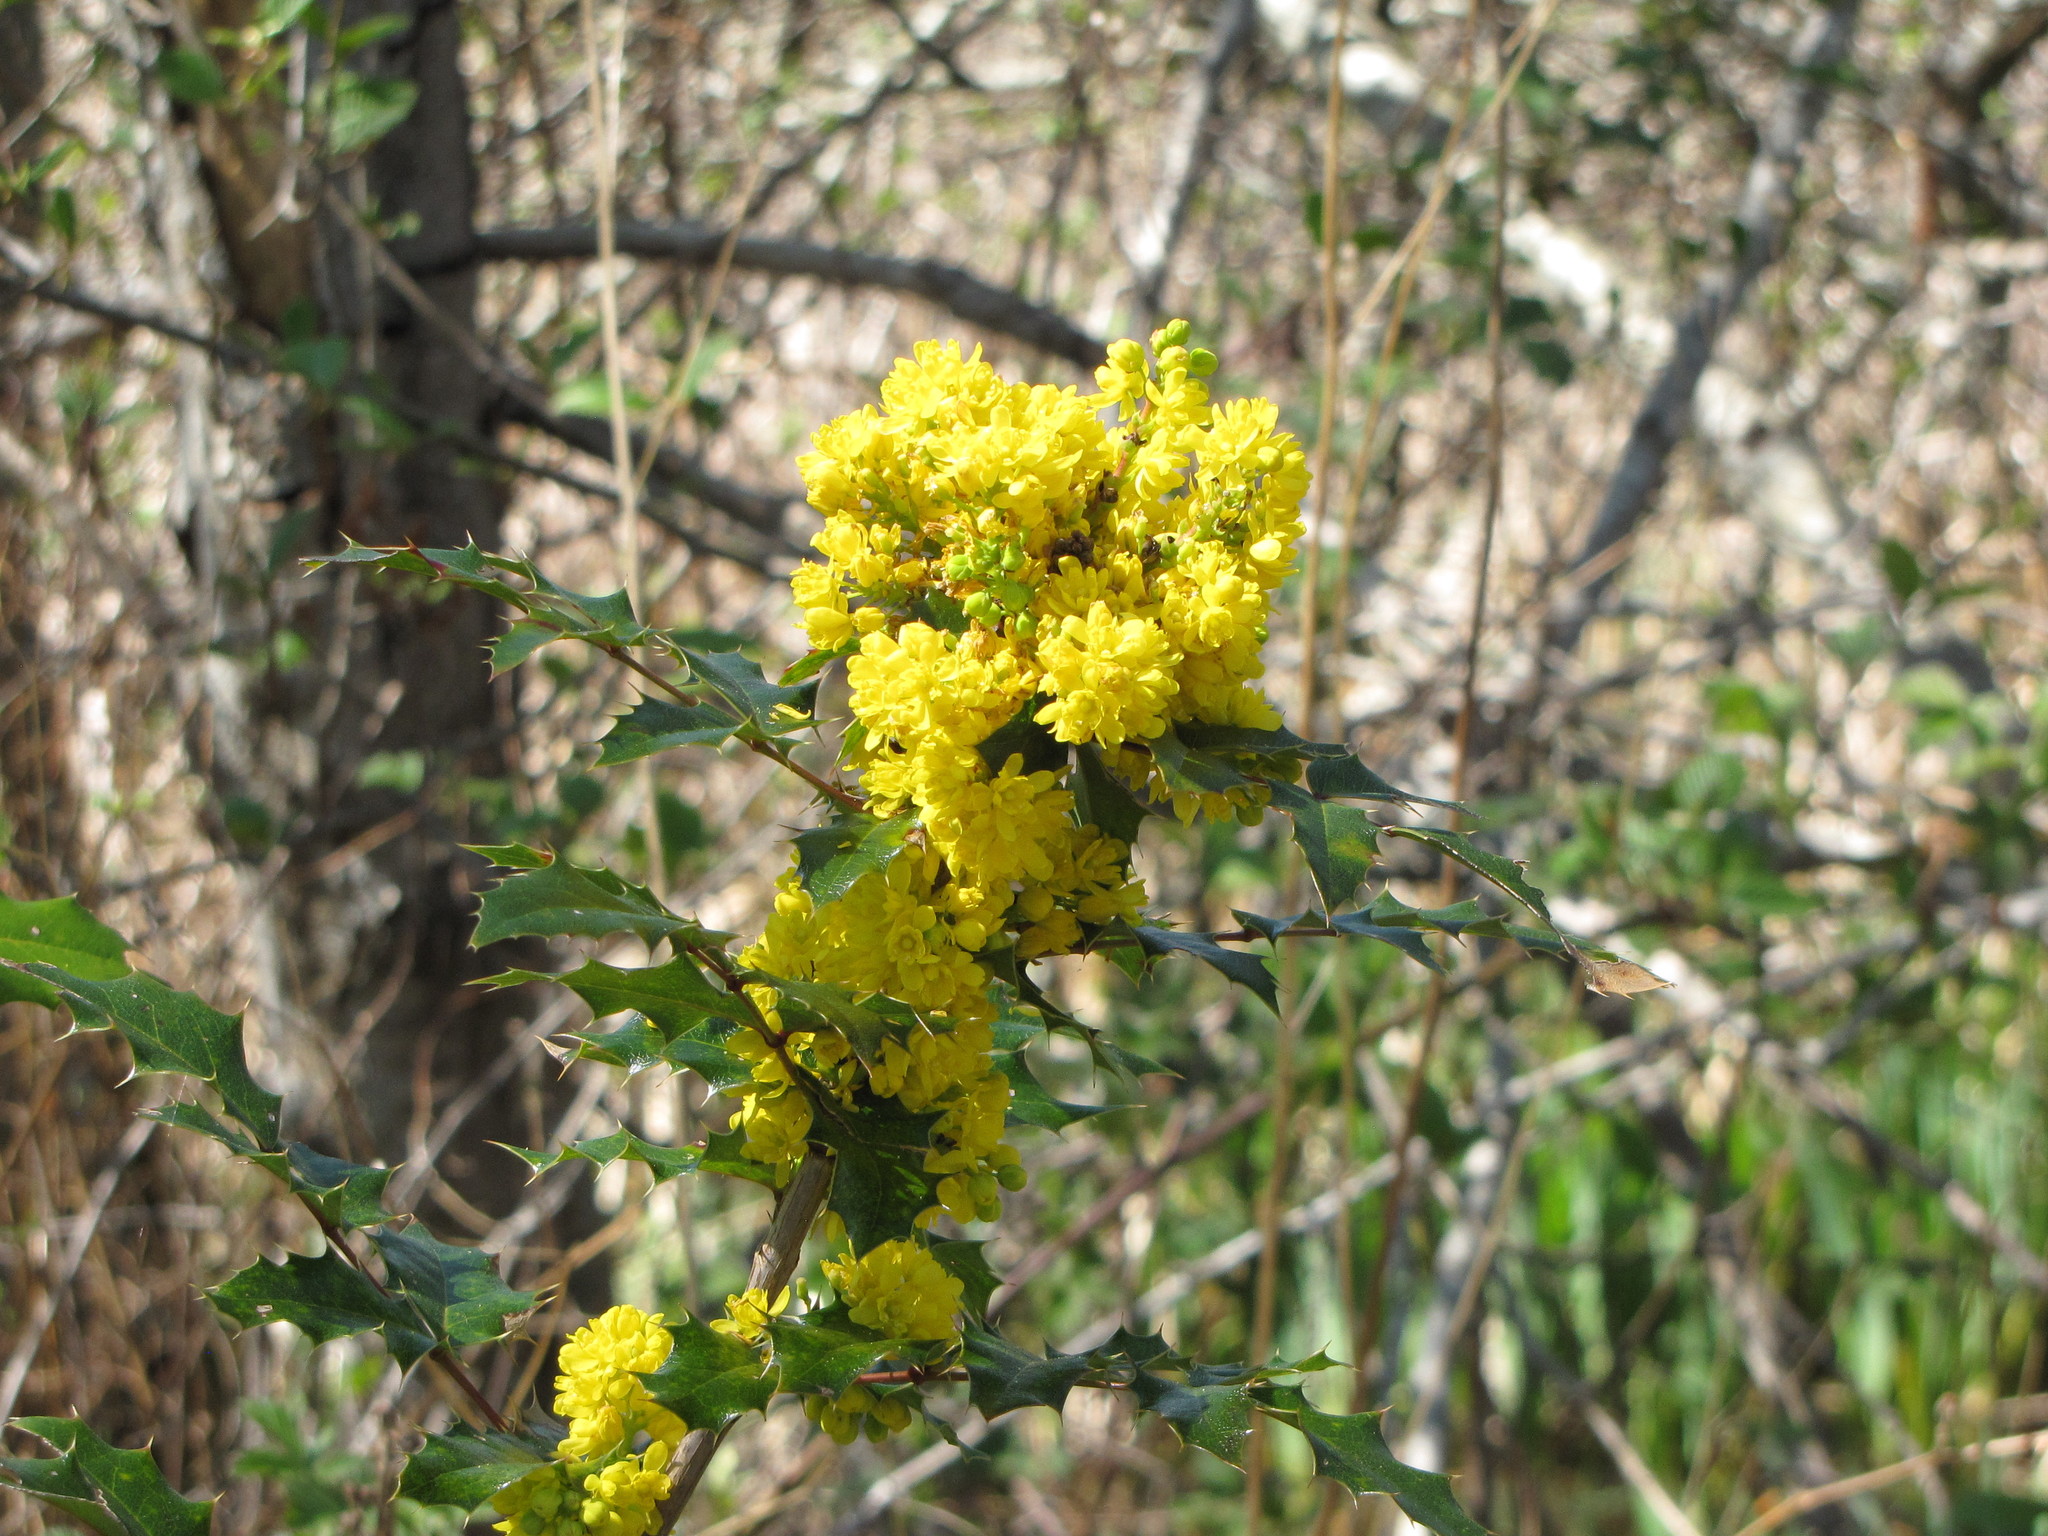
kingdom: Plantae
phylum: Tracheophyta
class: Magnoliopsida
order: Ranunculales
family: Berberidaceae
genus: Mahonia
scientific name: Mahonia aquifolium
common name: Oregon-grape
